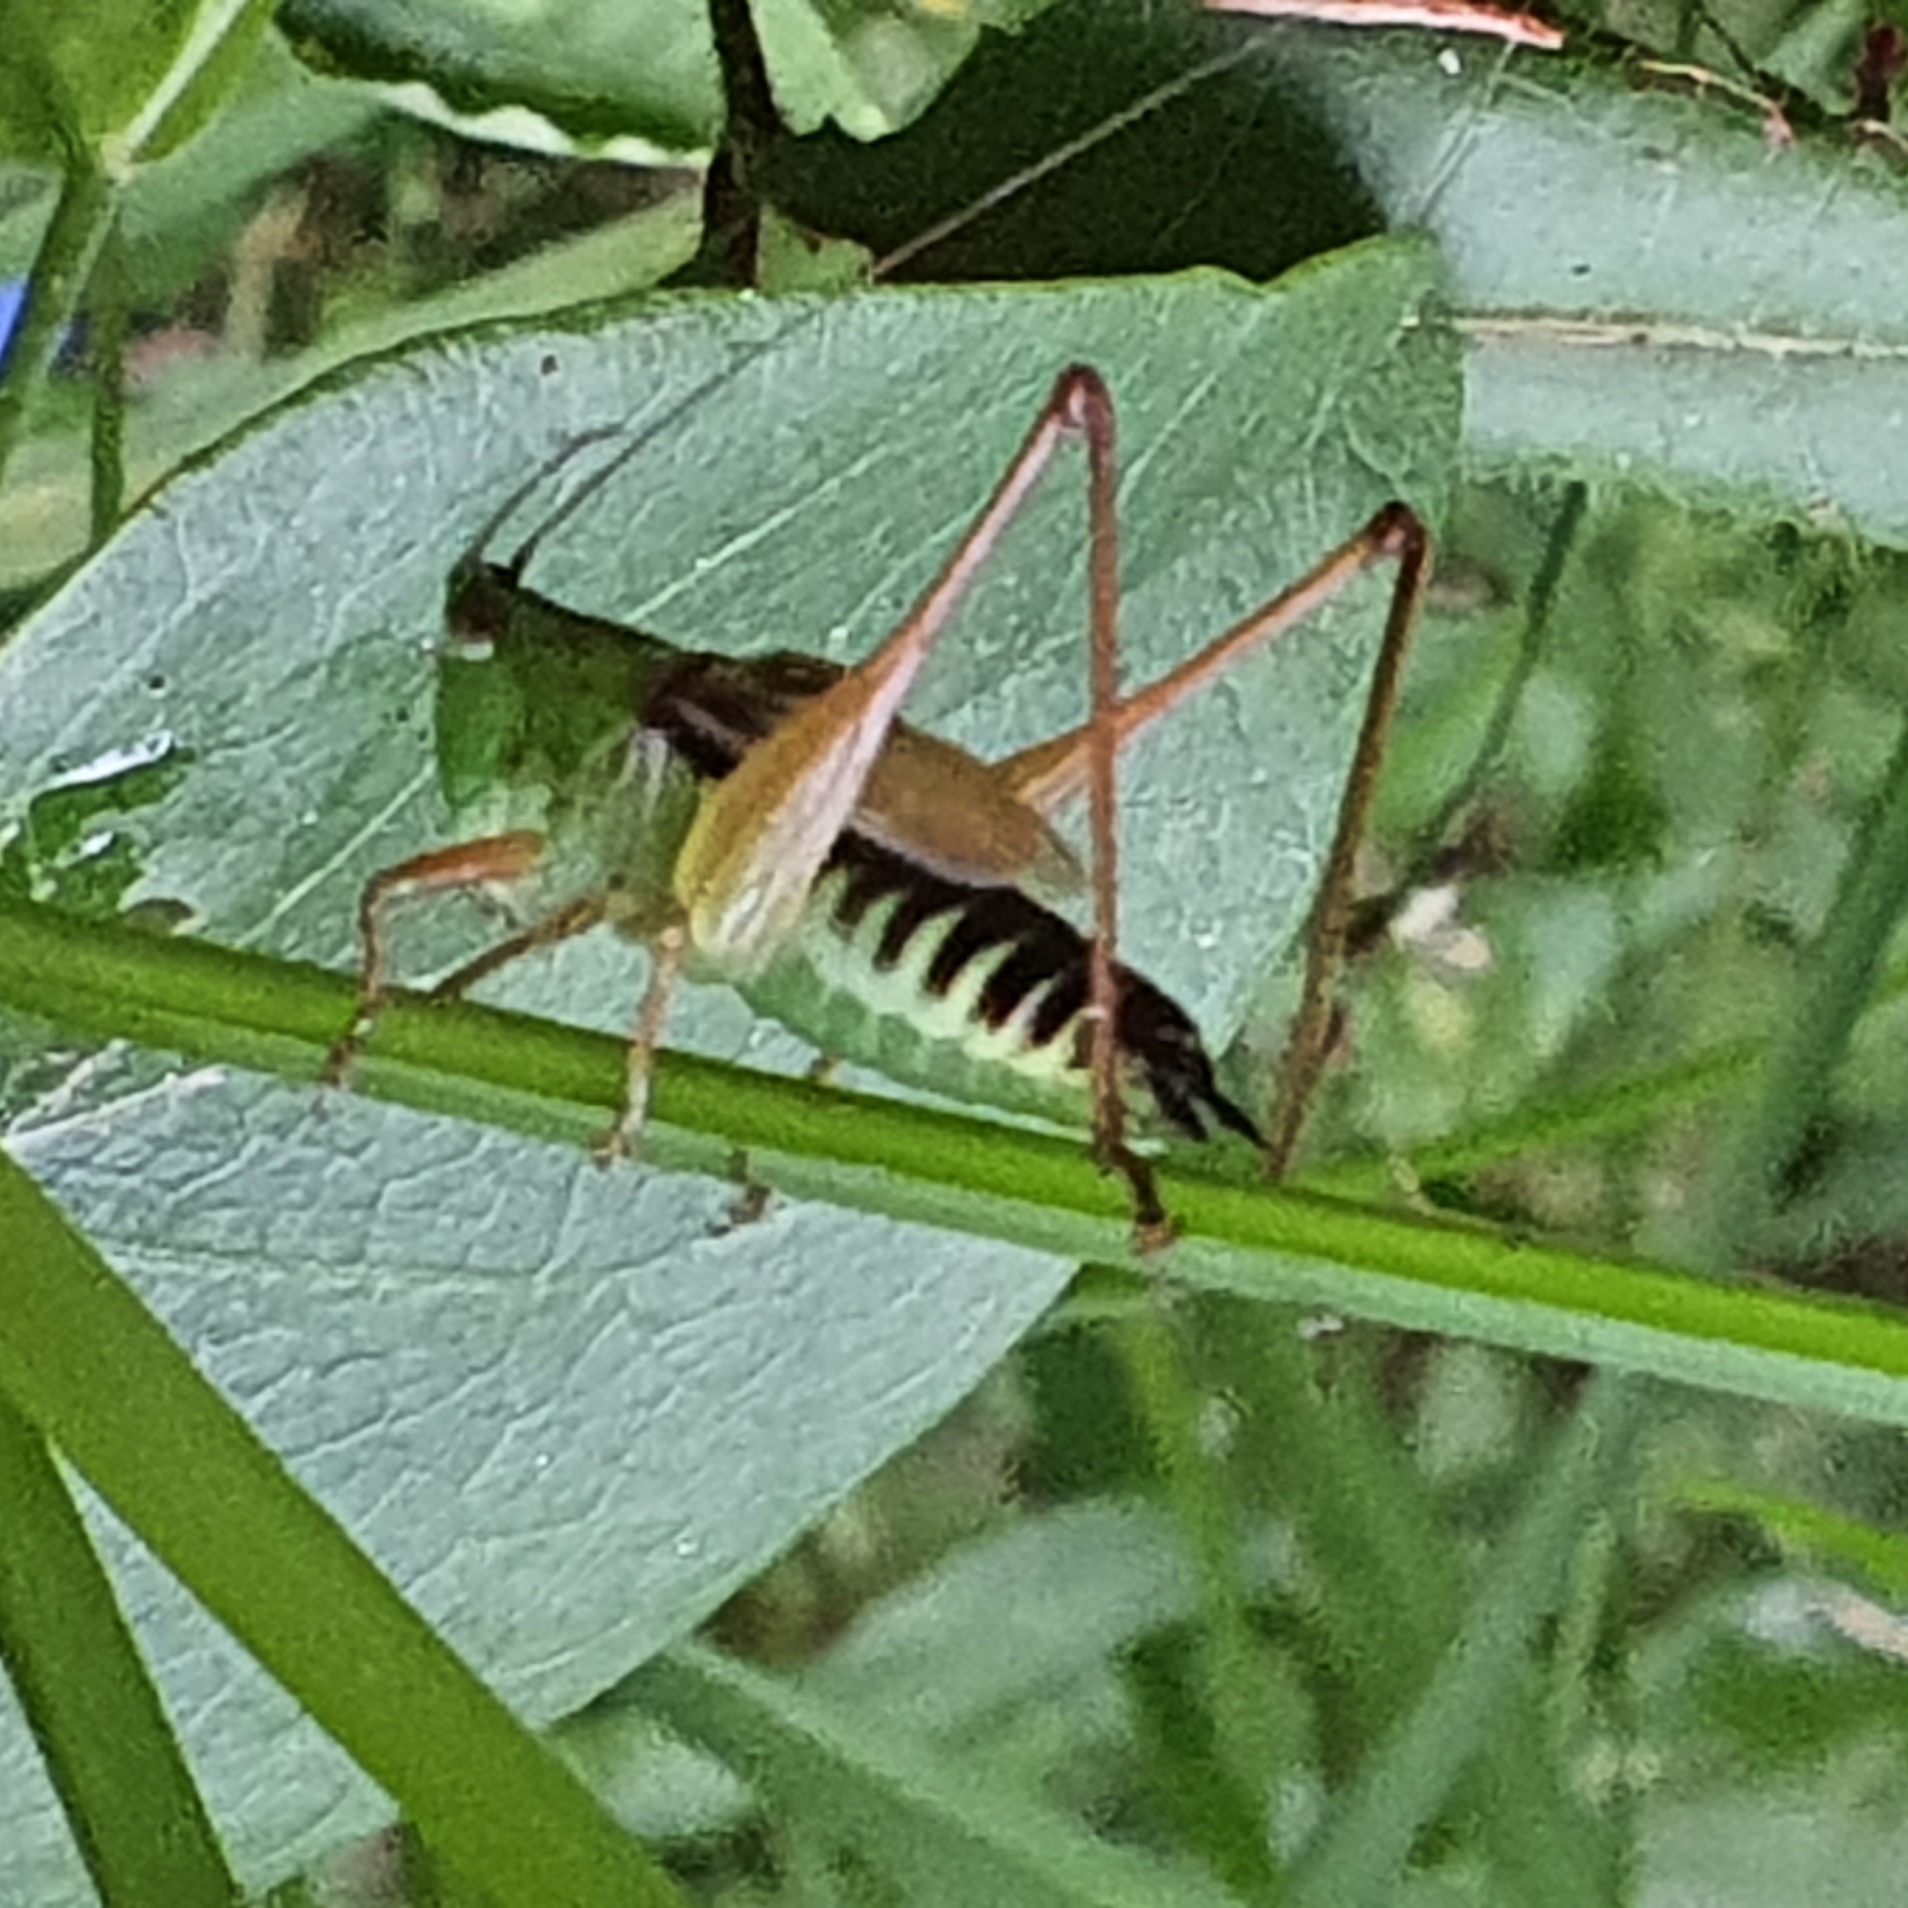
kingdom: Animalia
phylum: Arthropoda
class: Insecta
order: Orthoptera
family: Tettigoniidae
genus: Conocephalus
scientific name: Conocephalus semivittatus
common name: Blackish meadow katydid
